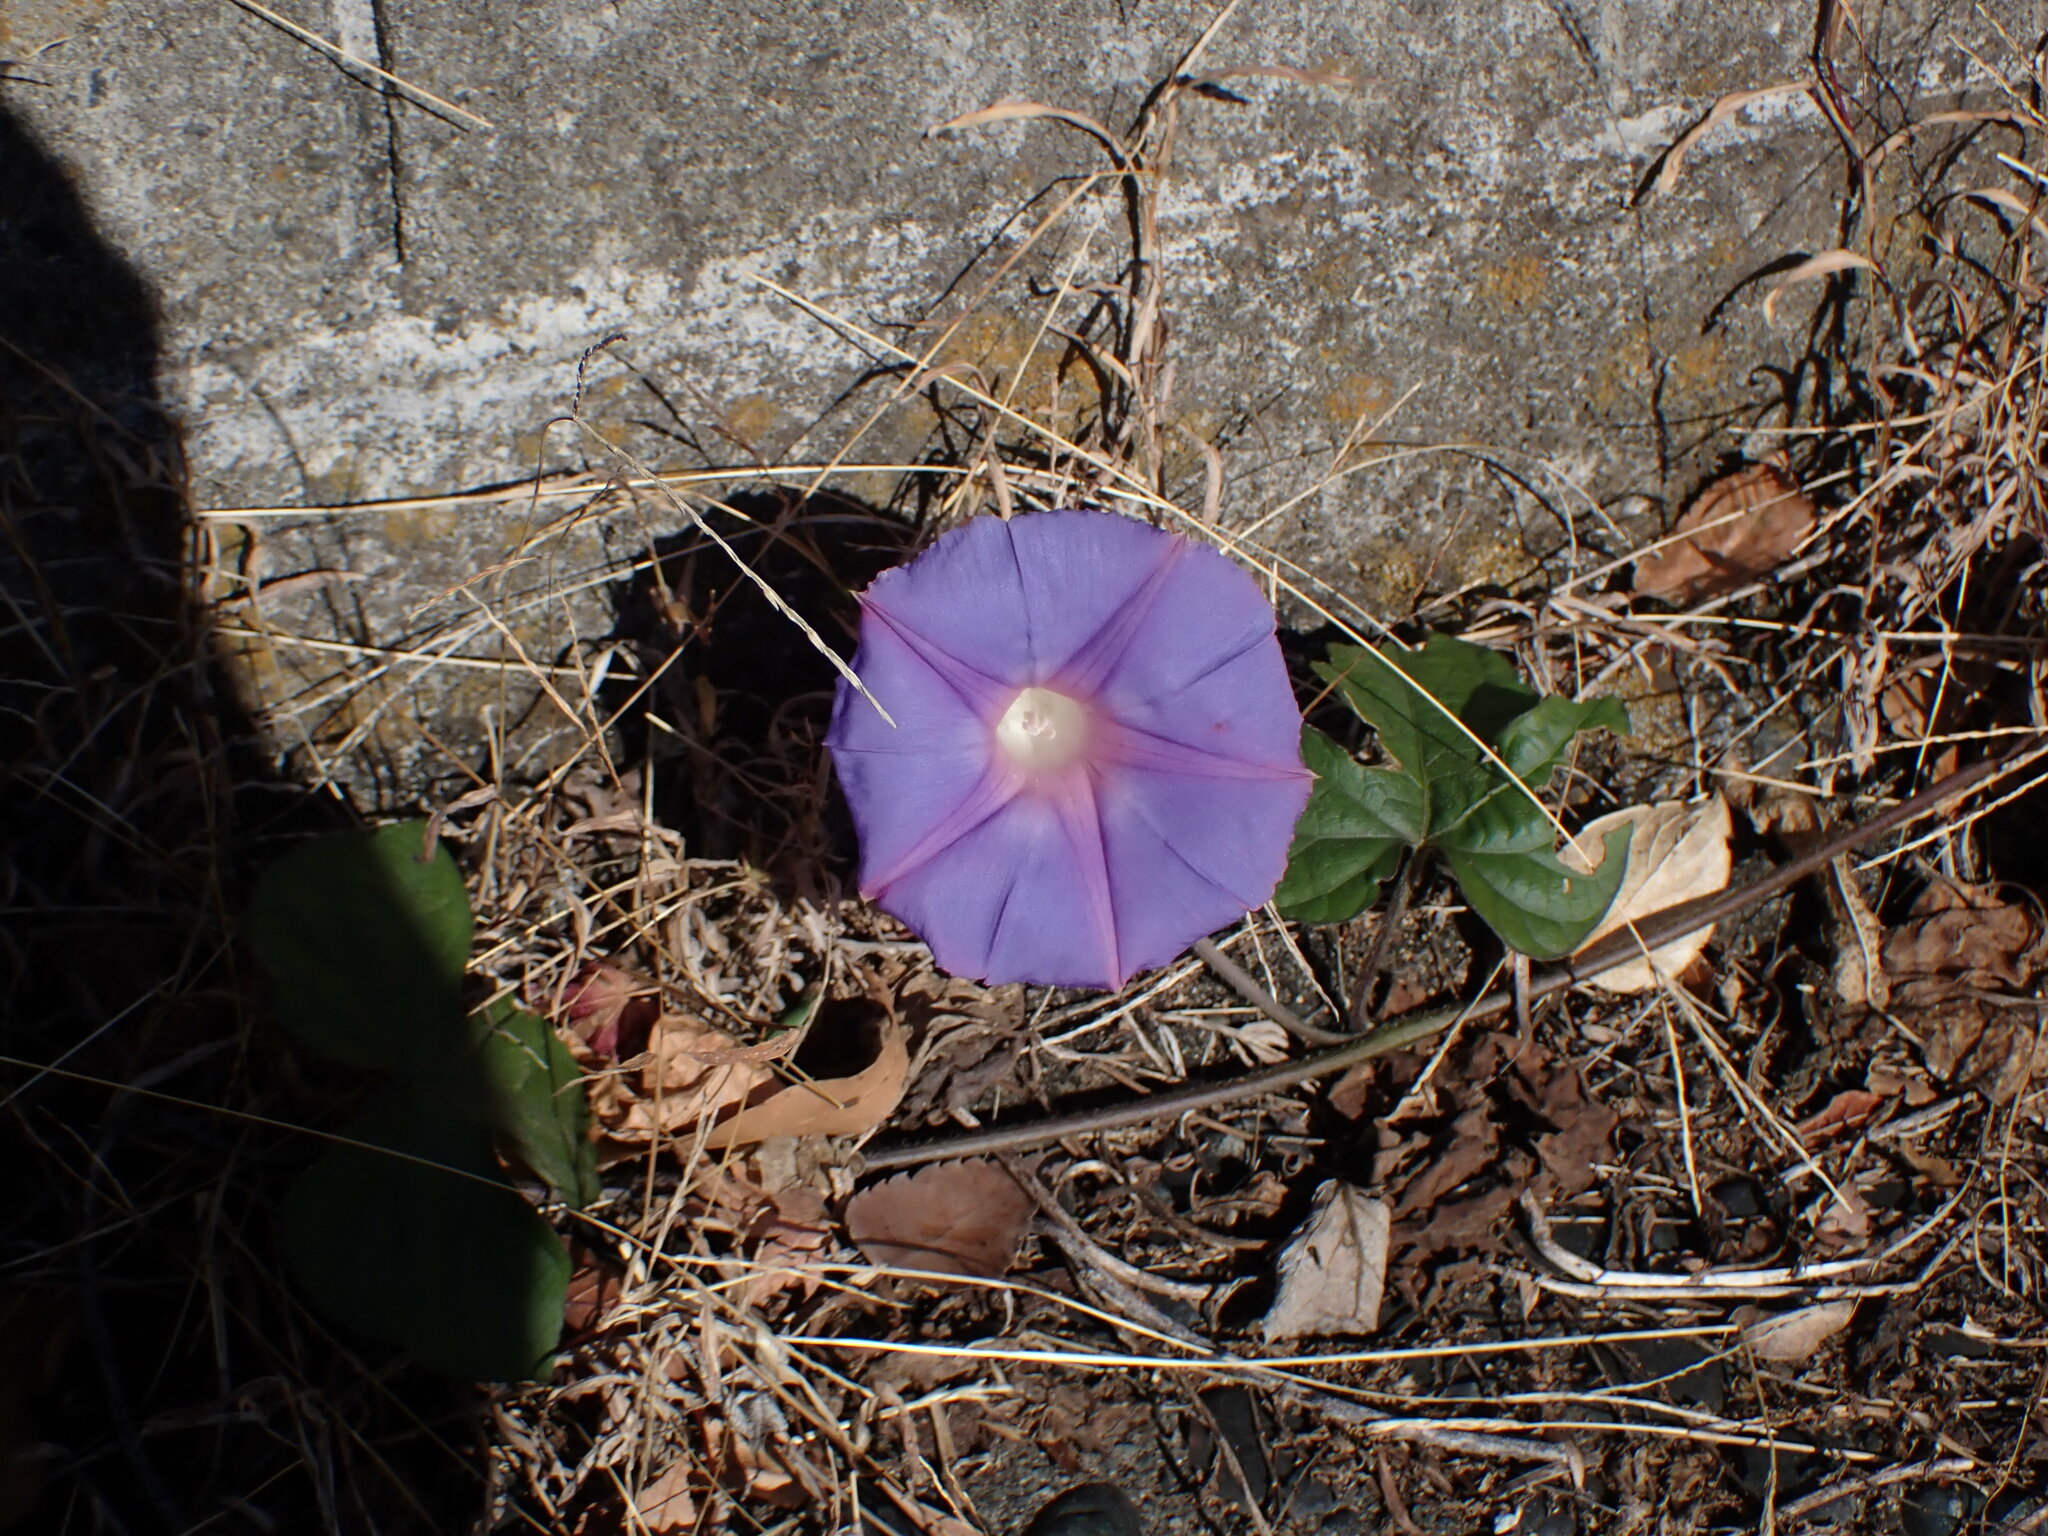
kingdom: Plantae
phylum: Tracheophyta
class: Magnoliopsida
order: Solanales
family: Convolvulaceae
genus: Ipomoea
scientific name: Ipomoea indica
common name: Blue dawnflower
